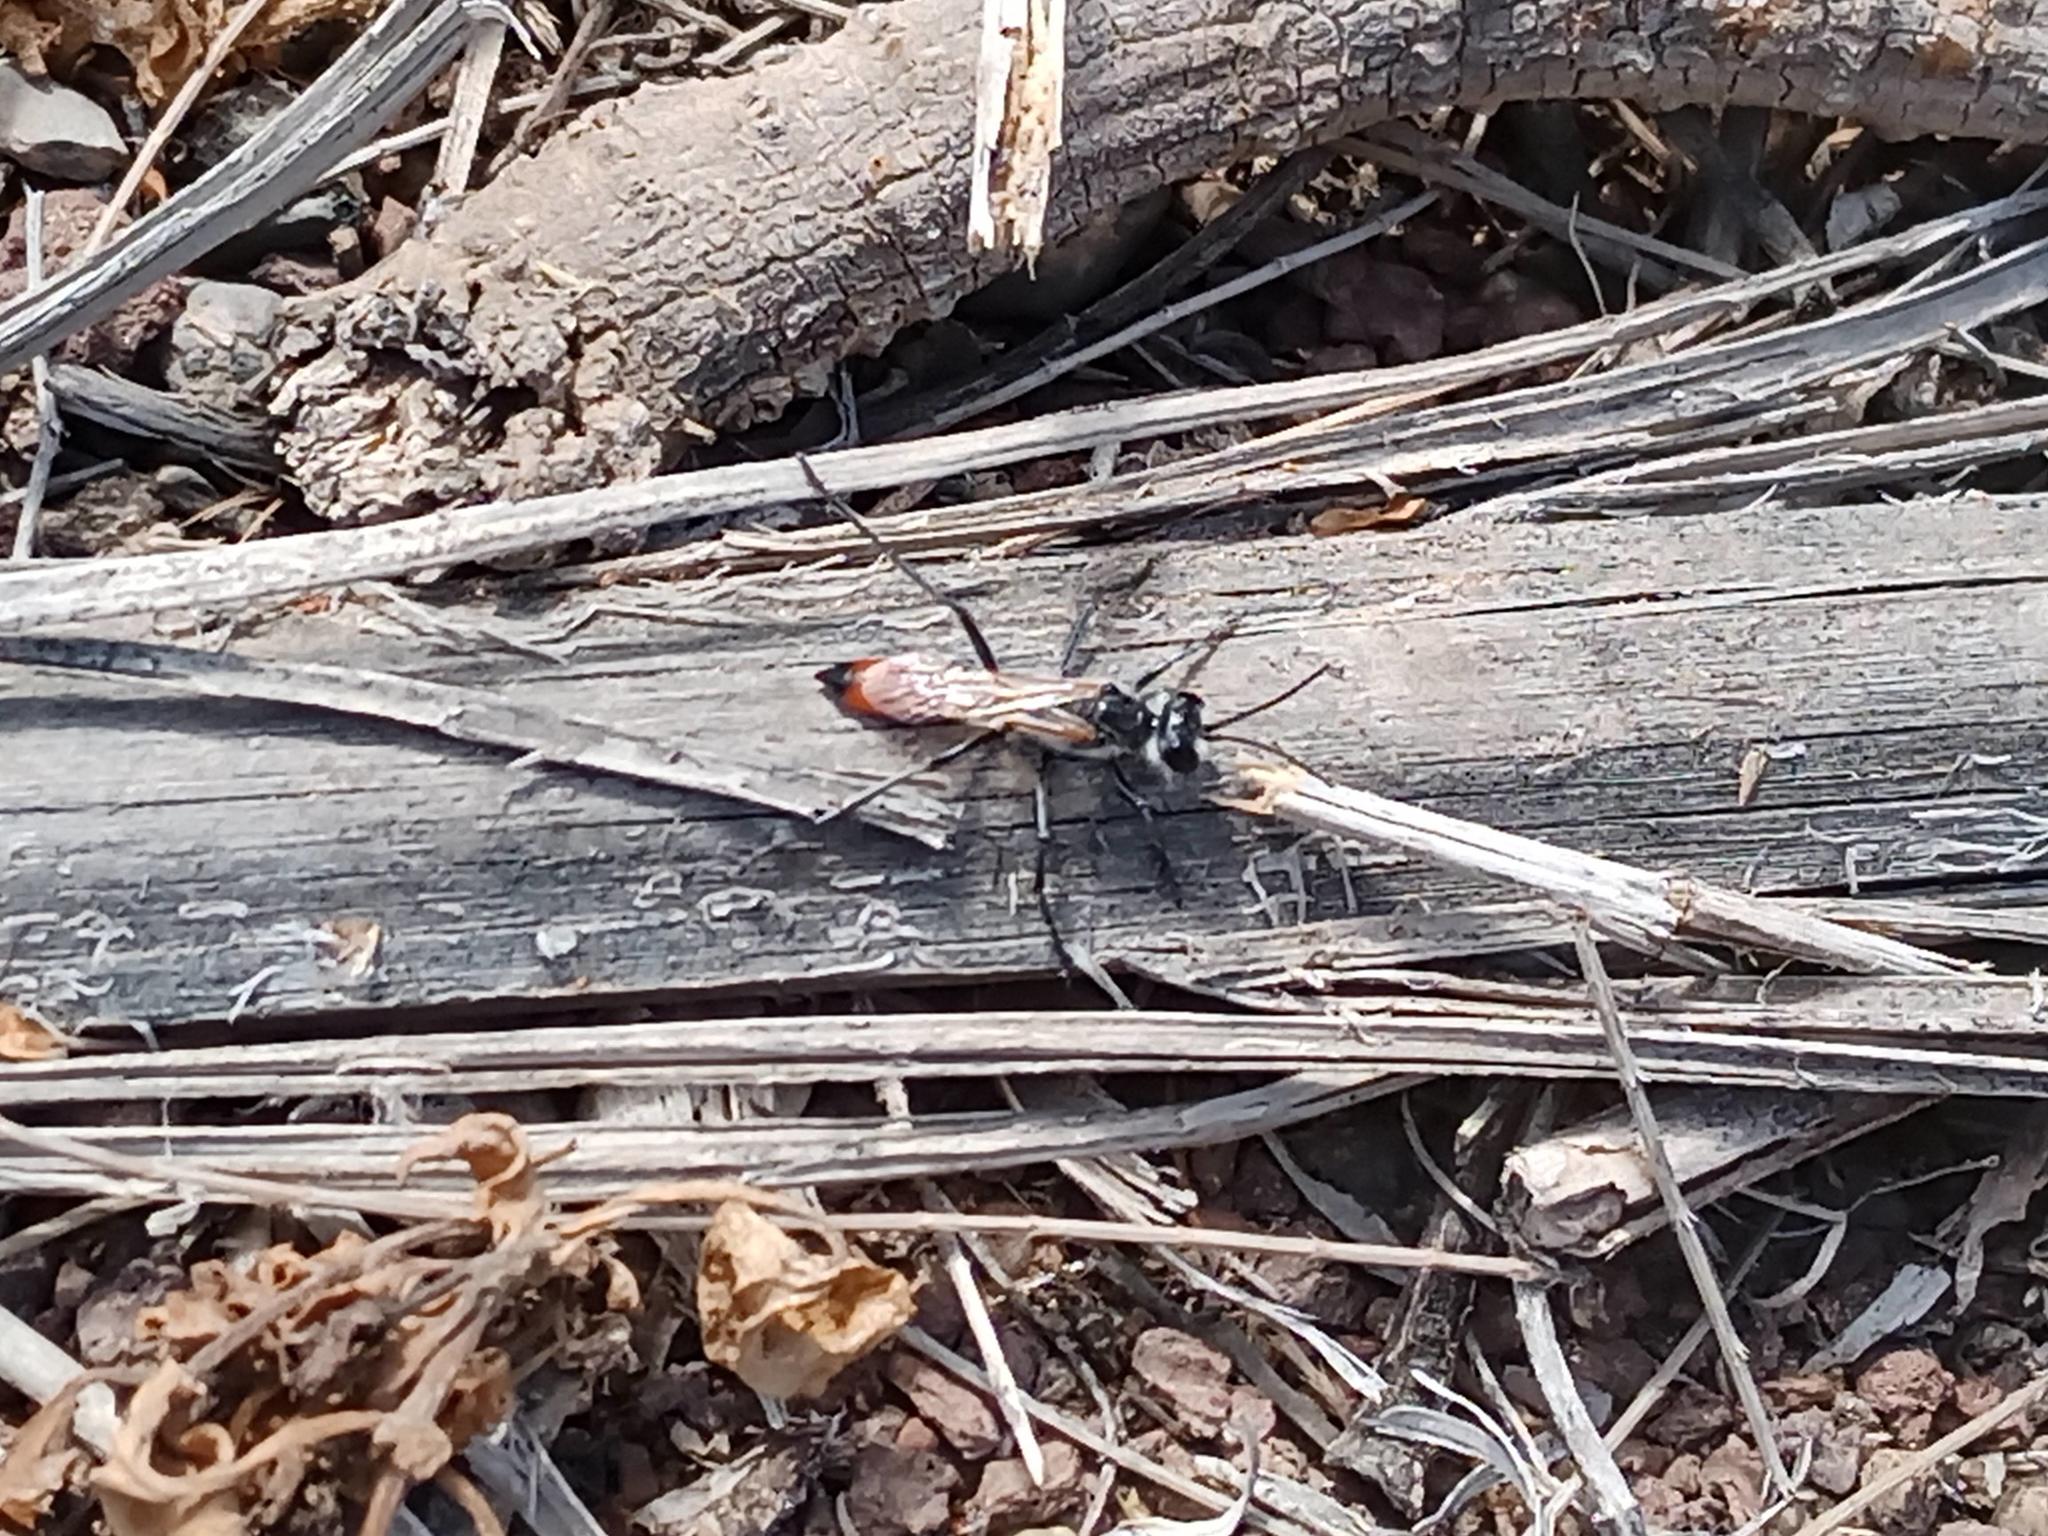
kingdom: Animalia
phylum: Arthropoda
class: Insecta
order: Hymenoptera
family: Sphecidae
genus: Podalonia
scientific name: Podalonia tydei
